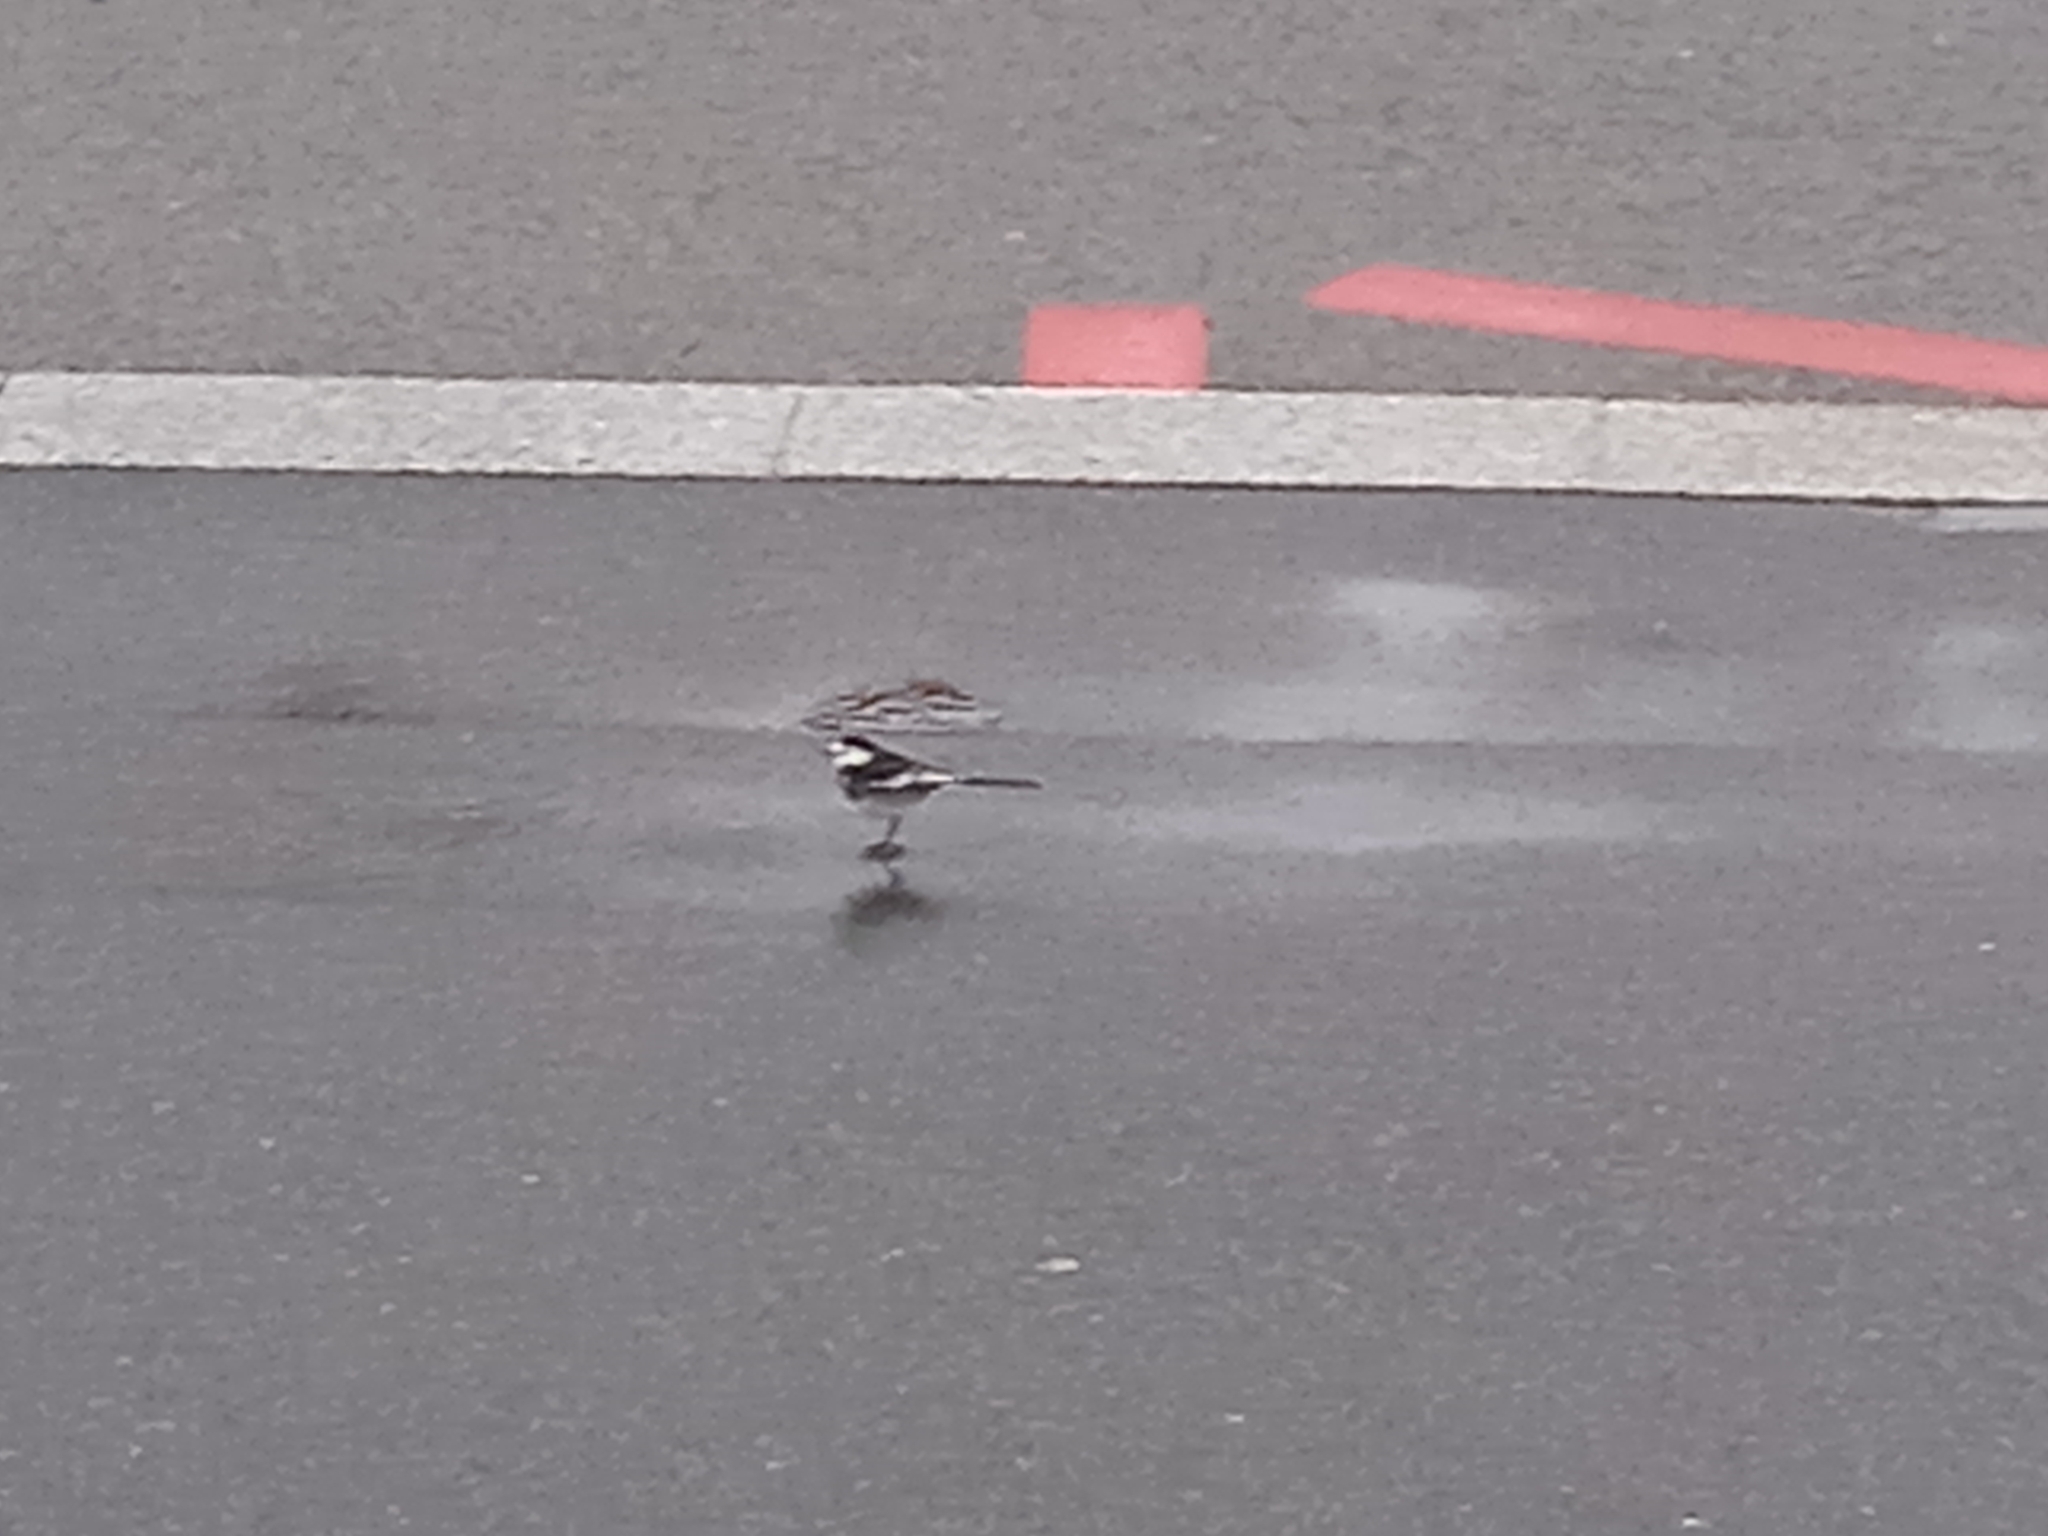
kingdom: Animalia
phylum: Chordata
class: Aves
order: Passeriformes
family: Motacillidae
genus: Motacilla
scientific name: Motacilla alba
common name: White wagtail
